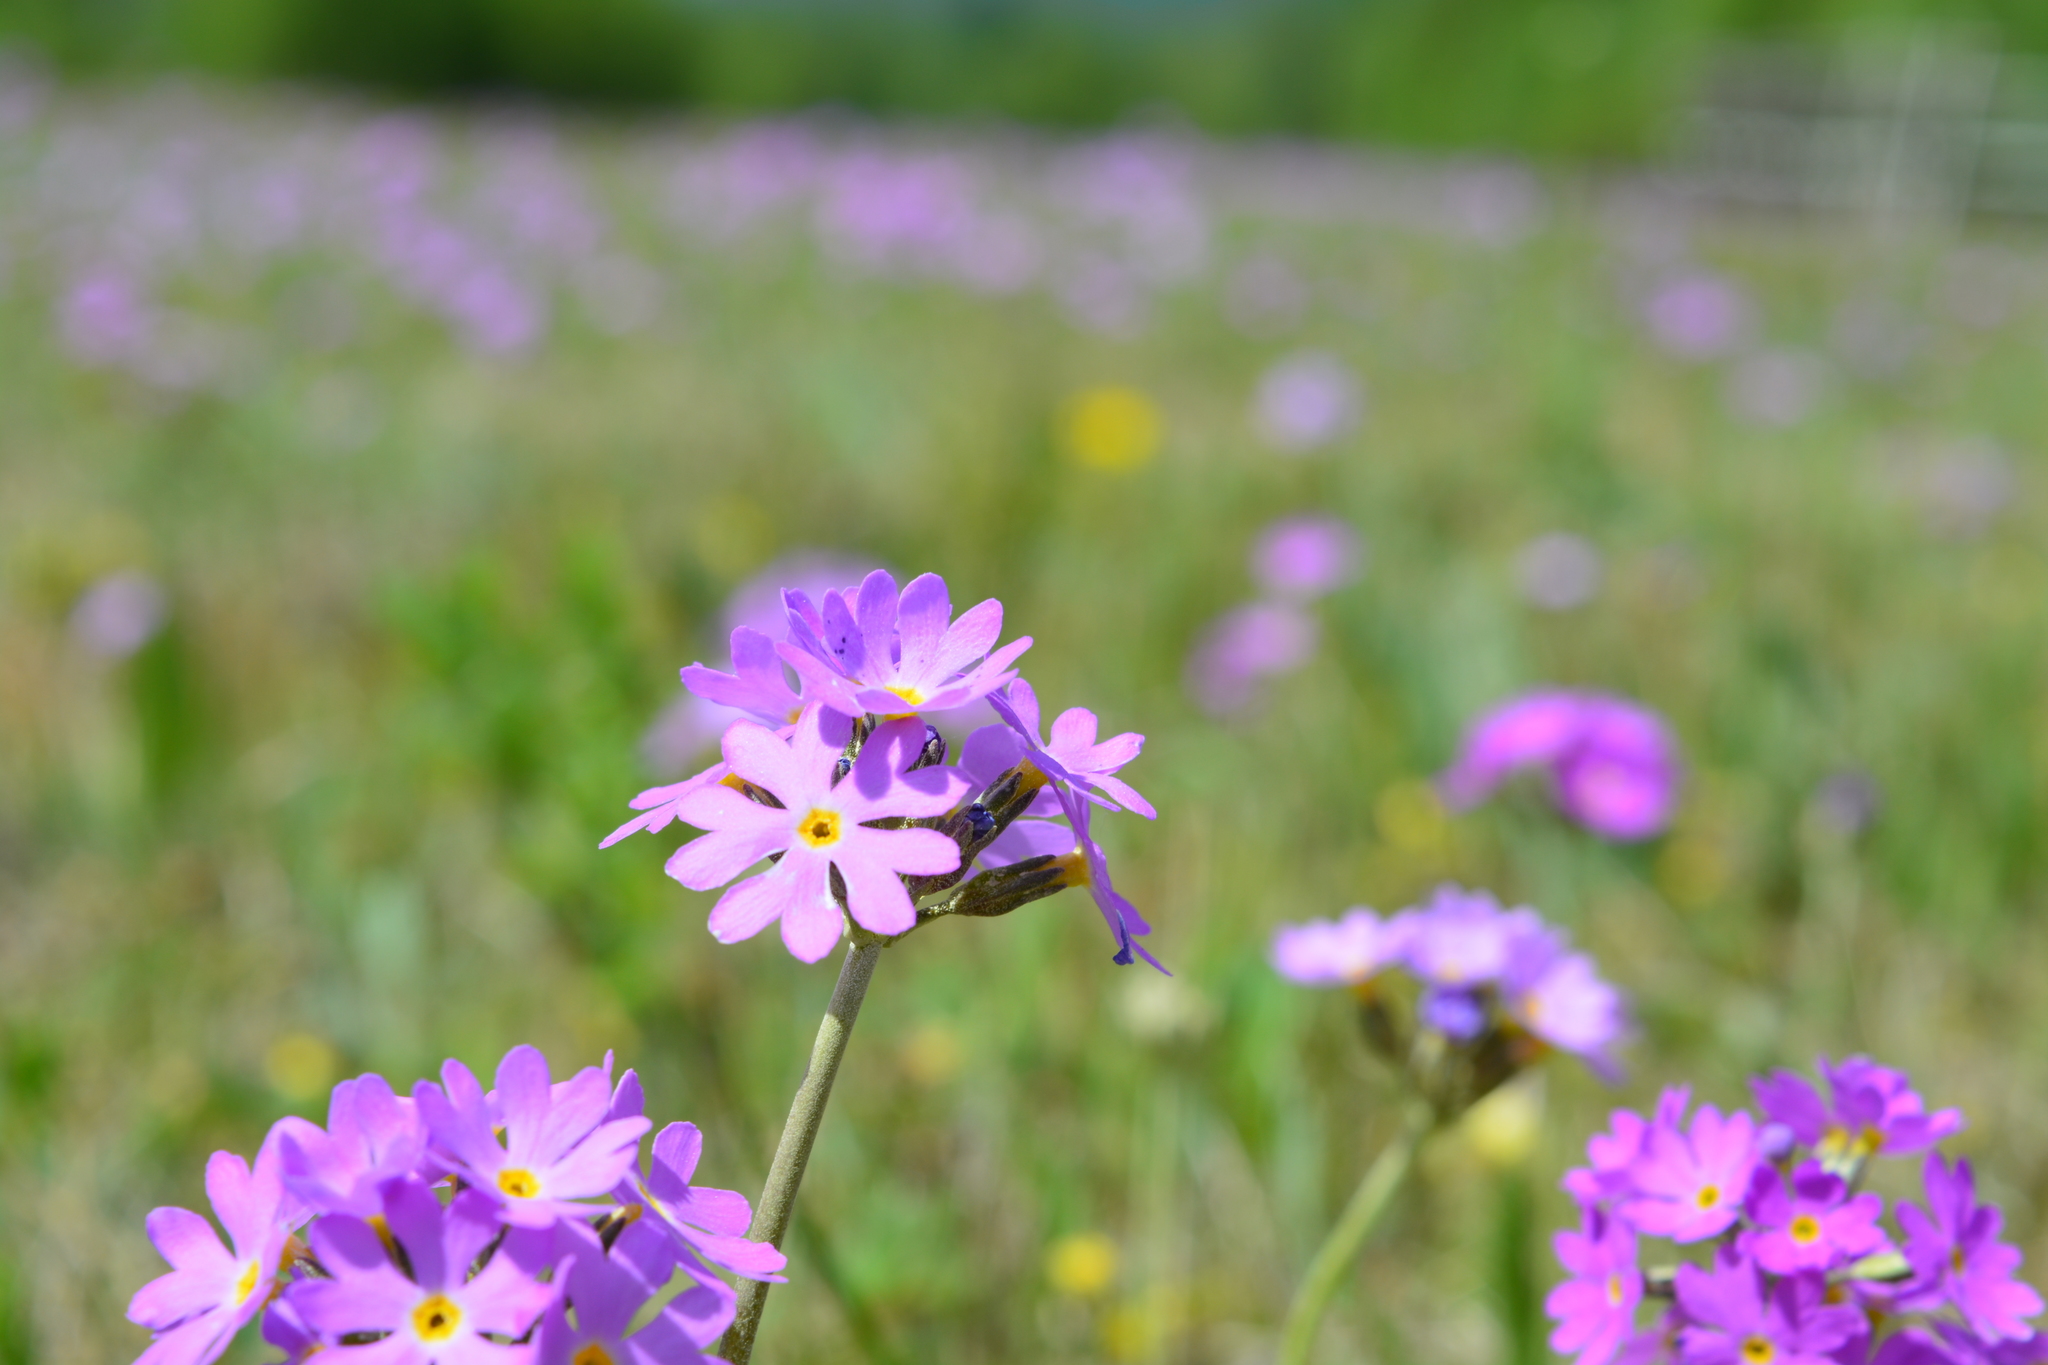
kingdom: Plantae
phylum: Tracheophyta
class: Magnoliopsida
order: Ericales
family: Primulaceae
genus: Primula
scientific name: Primula farinosa
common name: Bird's-eye primrose
